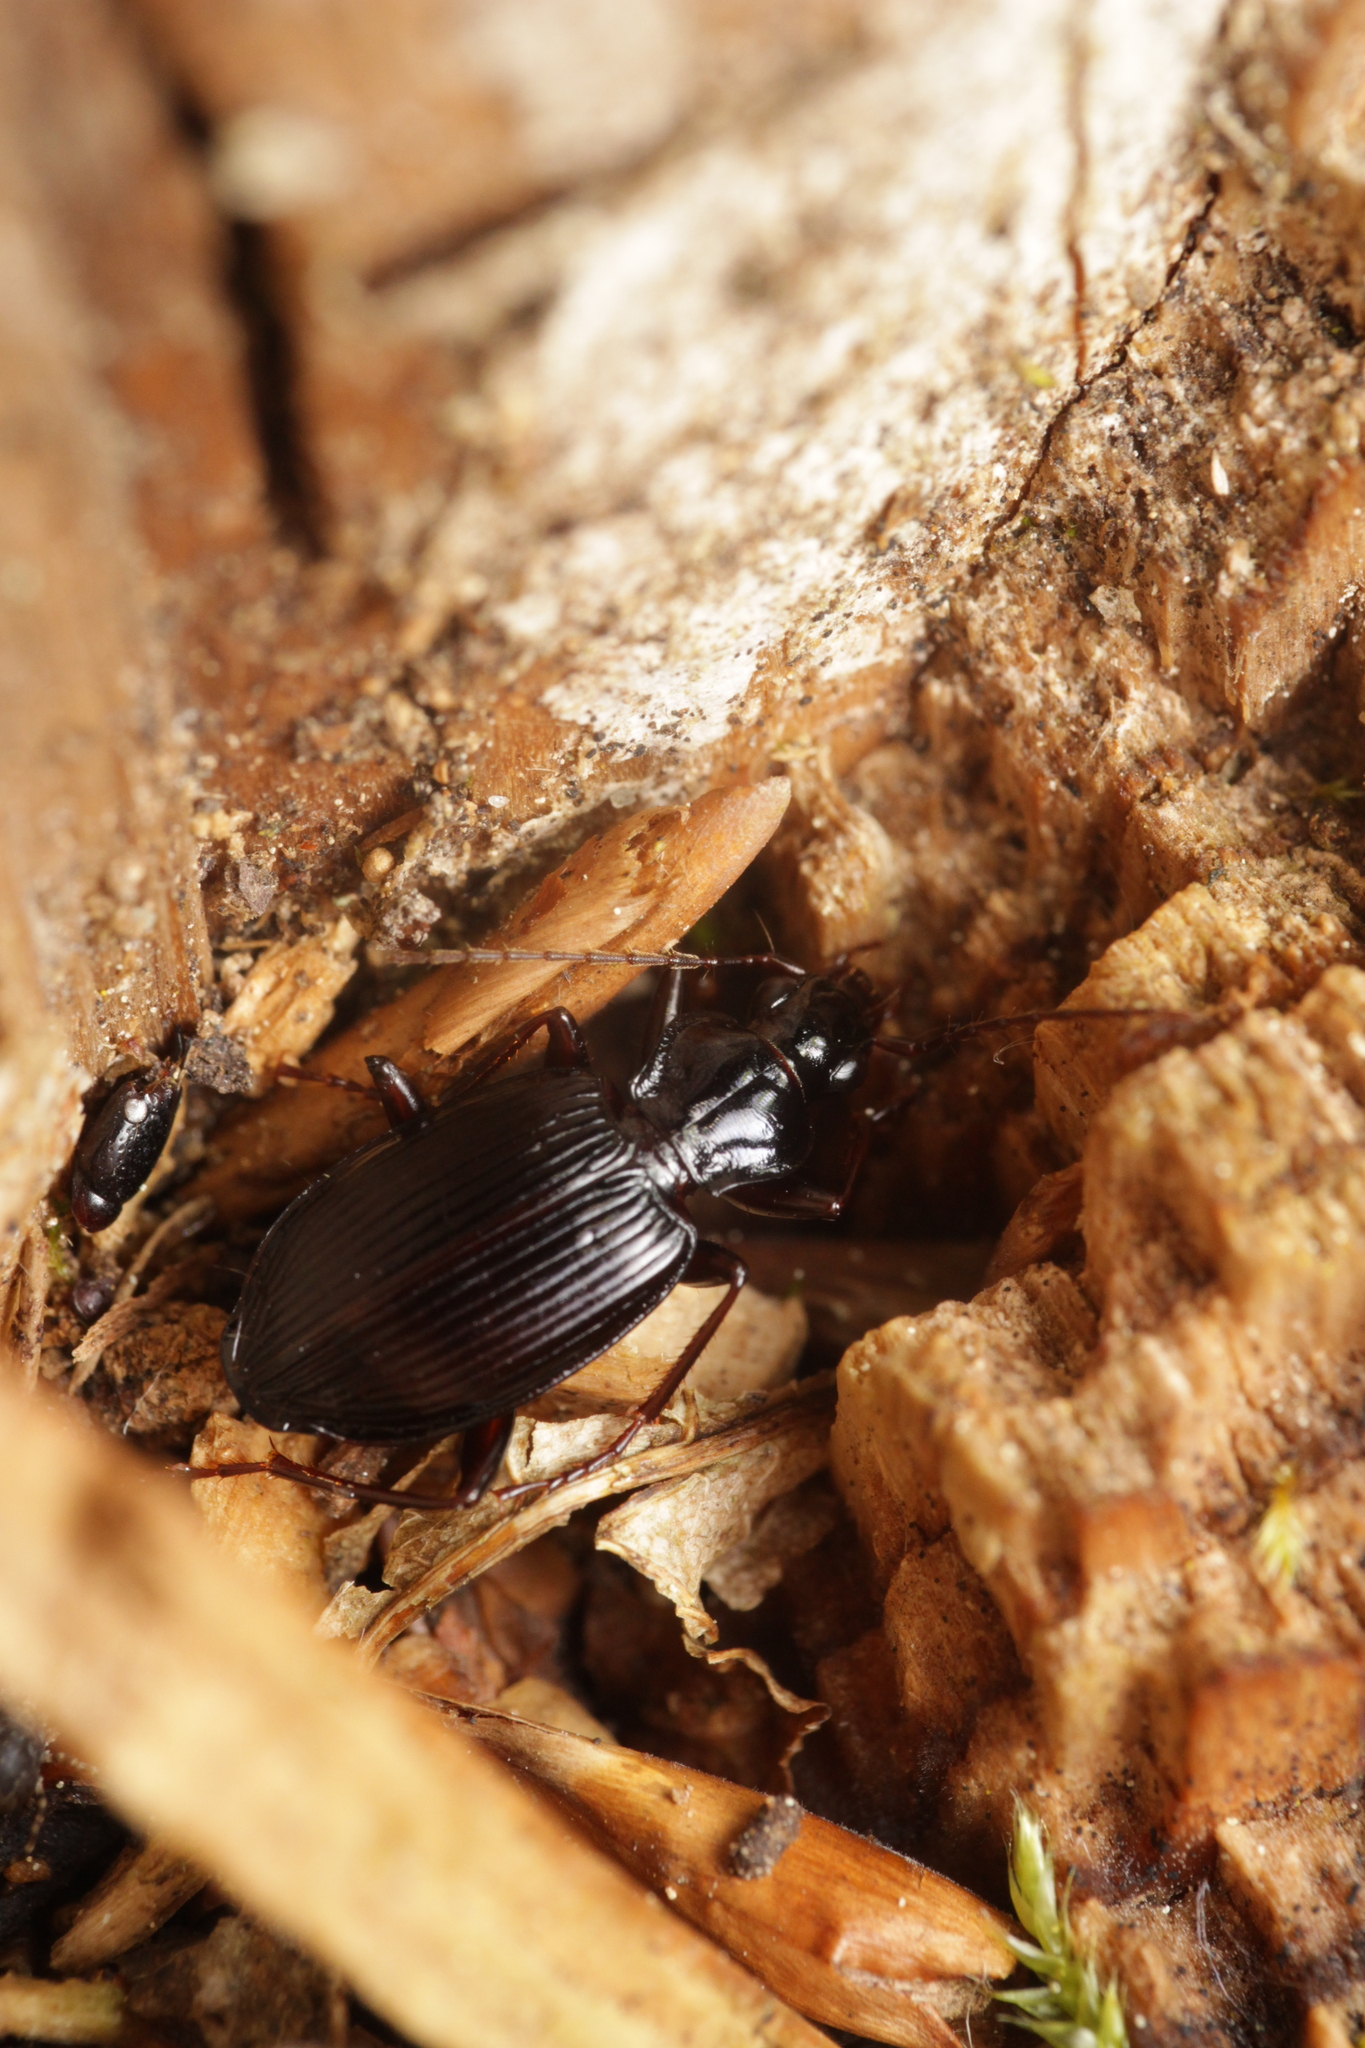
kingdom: Animalia
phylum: Arthropoda
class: Insecta
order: Coleoptera
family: Carabidae
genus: Platynus
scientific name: Platynus assimilis
